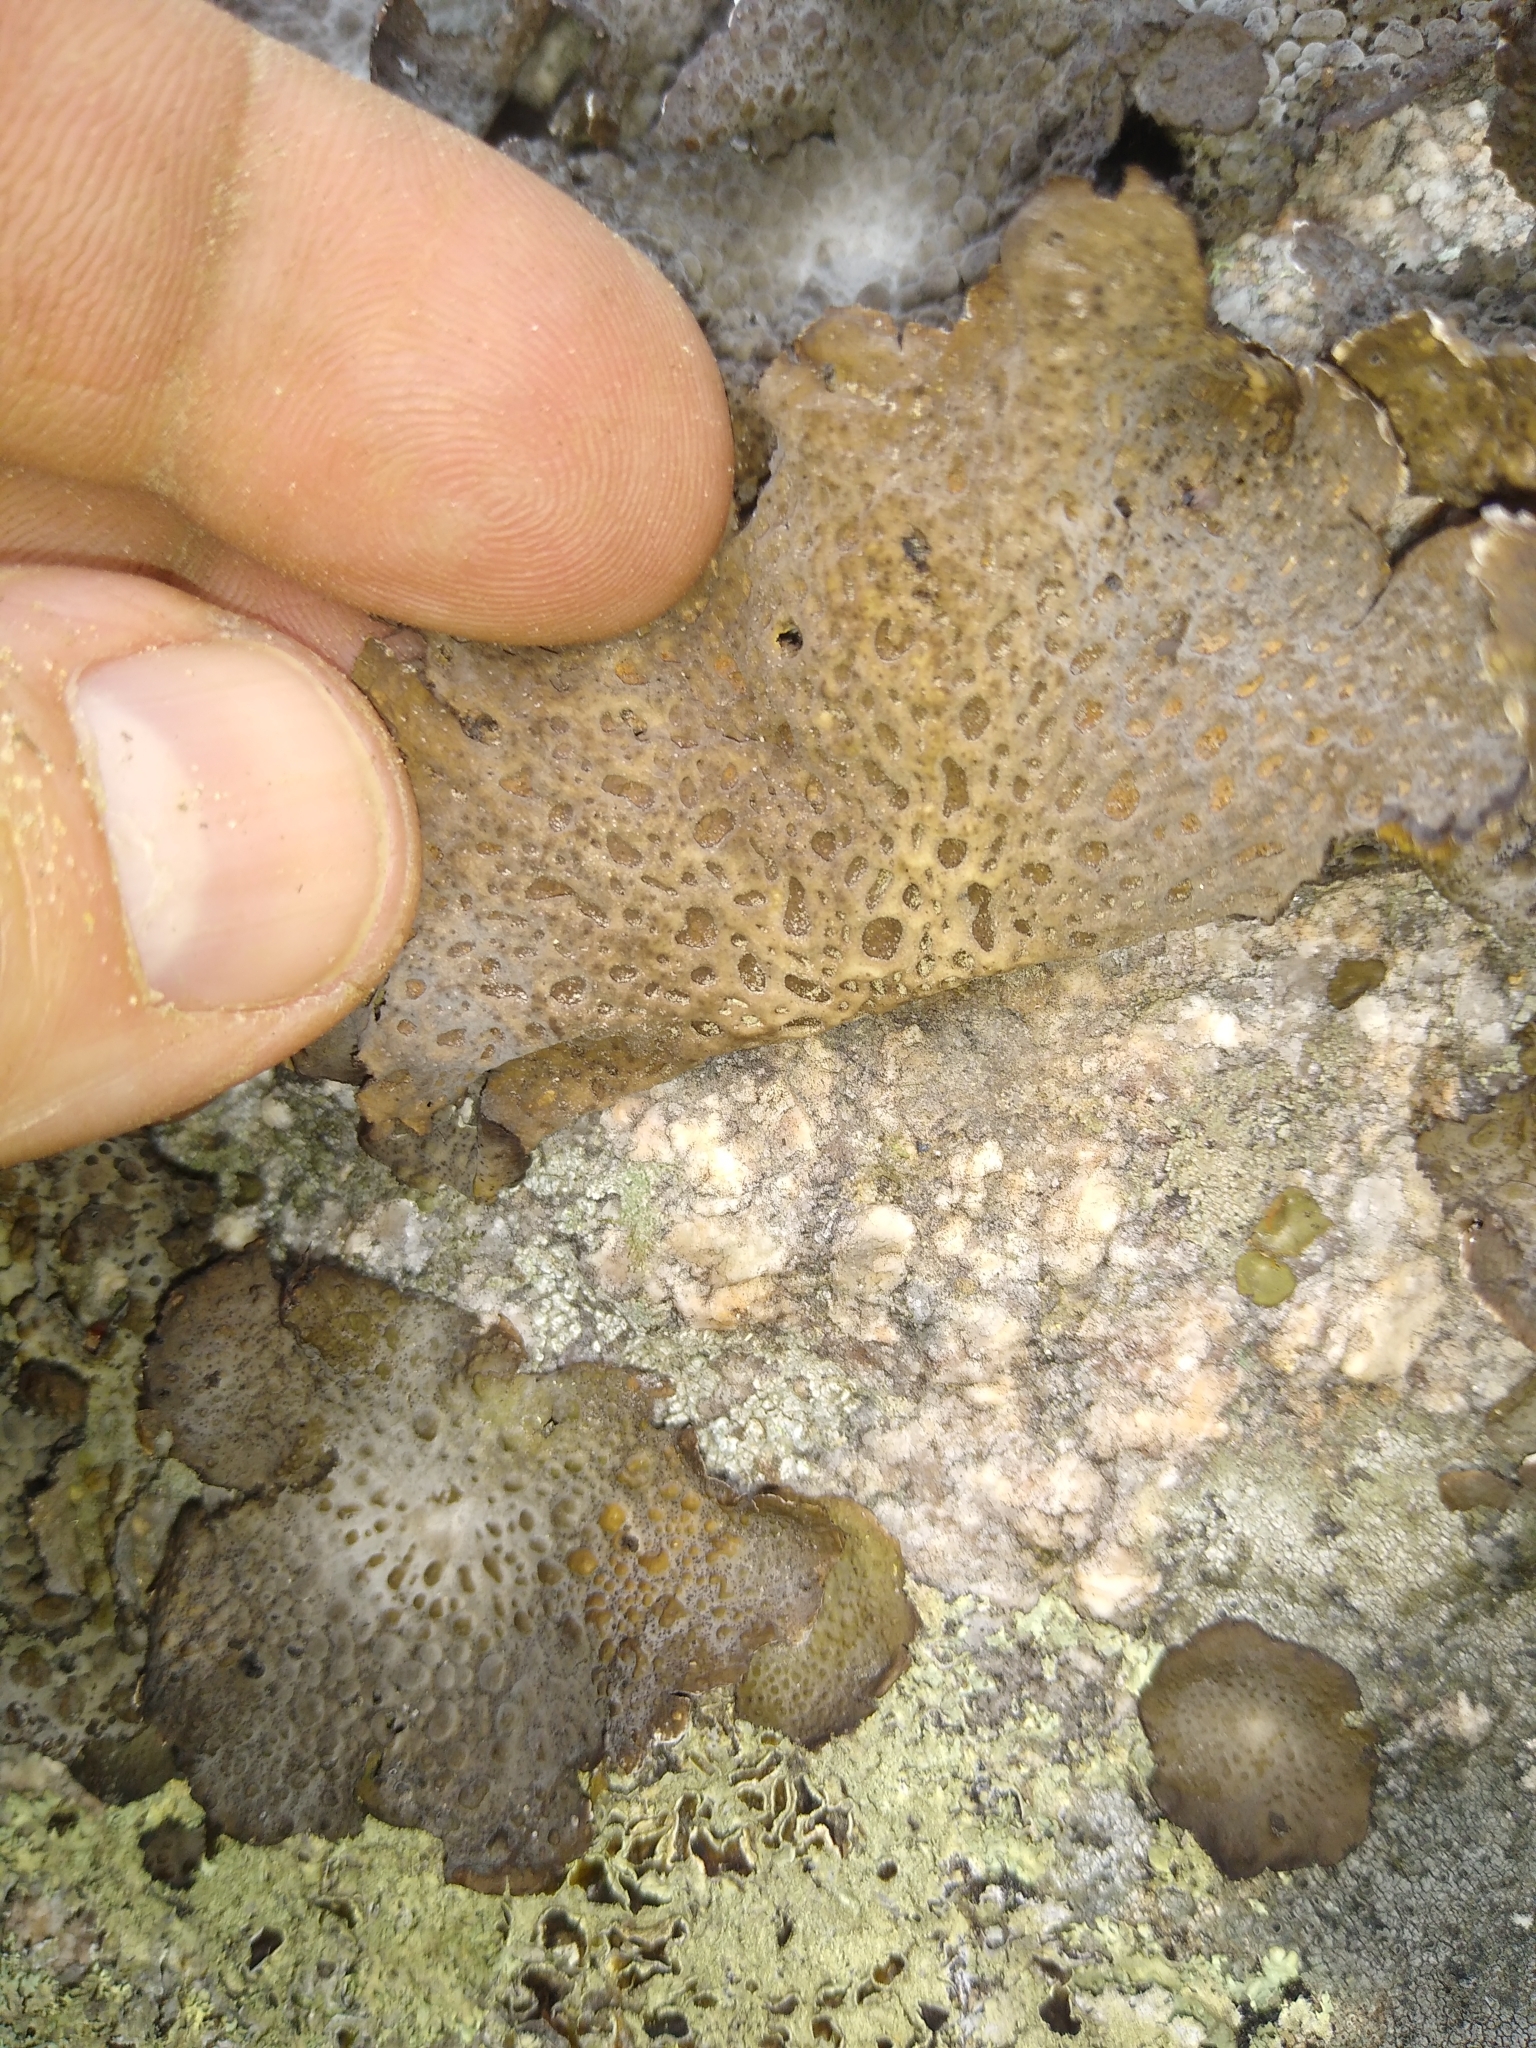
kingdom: Fungi
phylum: Ascomycota
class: Lecanoromycetes
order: Umbilicariales
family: Umbilicariaceae
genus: Lasallia
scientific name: Lasallia papulosa
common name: Common toadskin lichen
